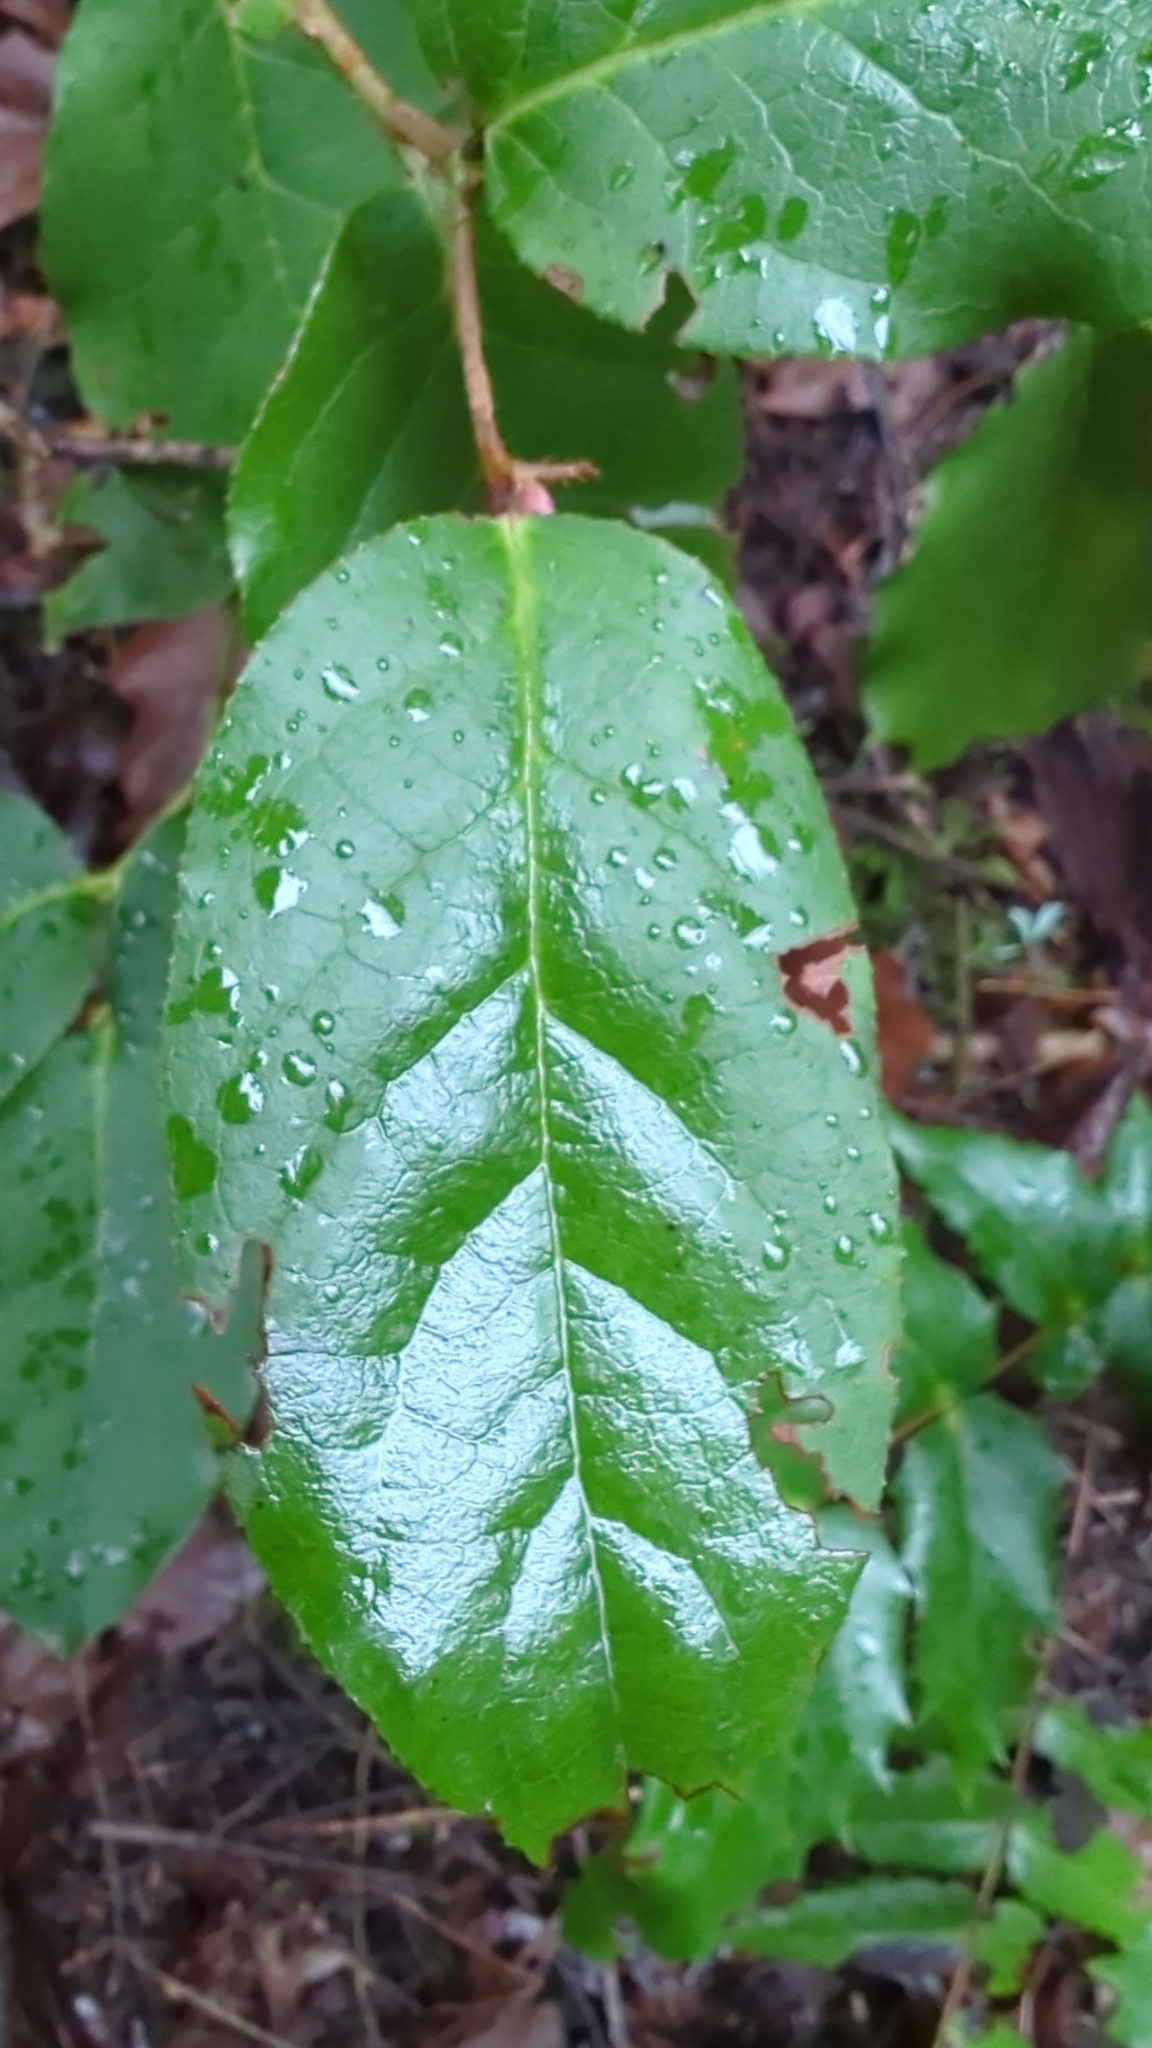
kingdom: Plantae
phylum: Tracheophyta
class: Magnoliopsida
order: Ericales
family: Ericaceae
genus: Gaultheria
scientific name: Gaultheria shallon
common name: Shallon
